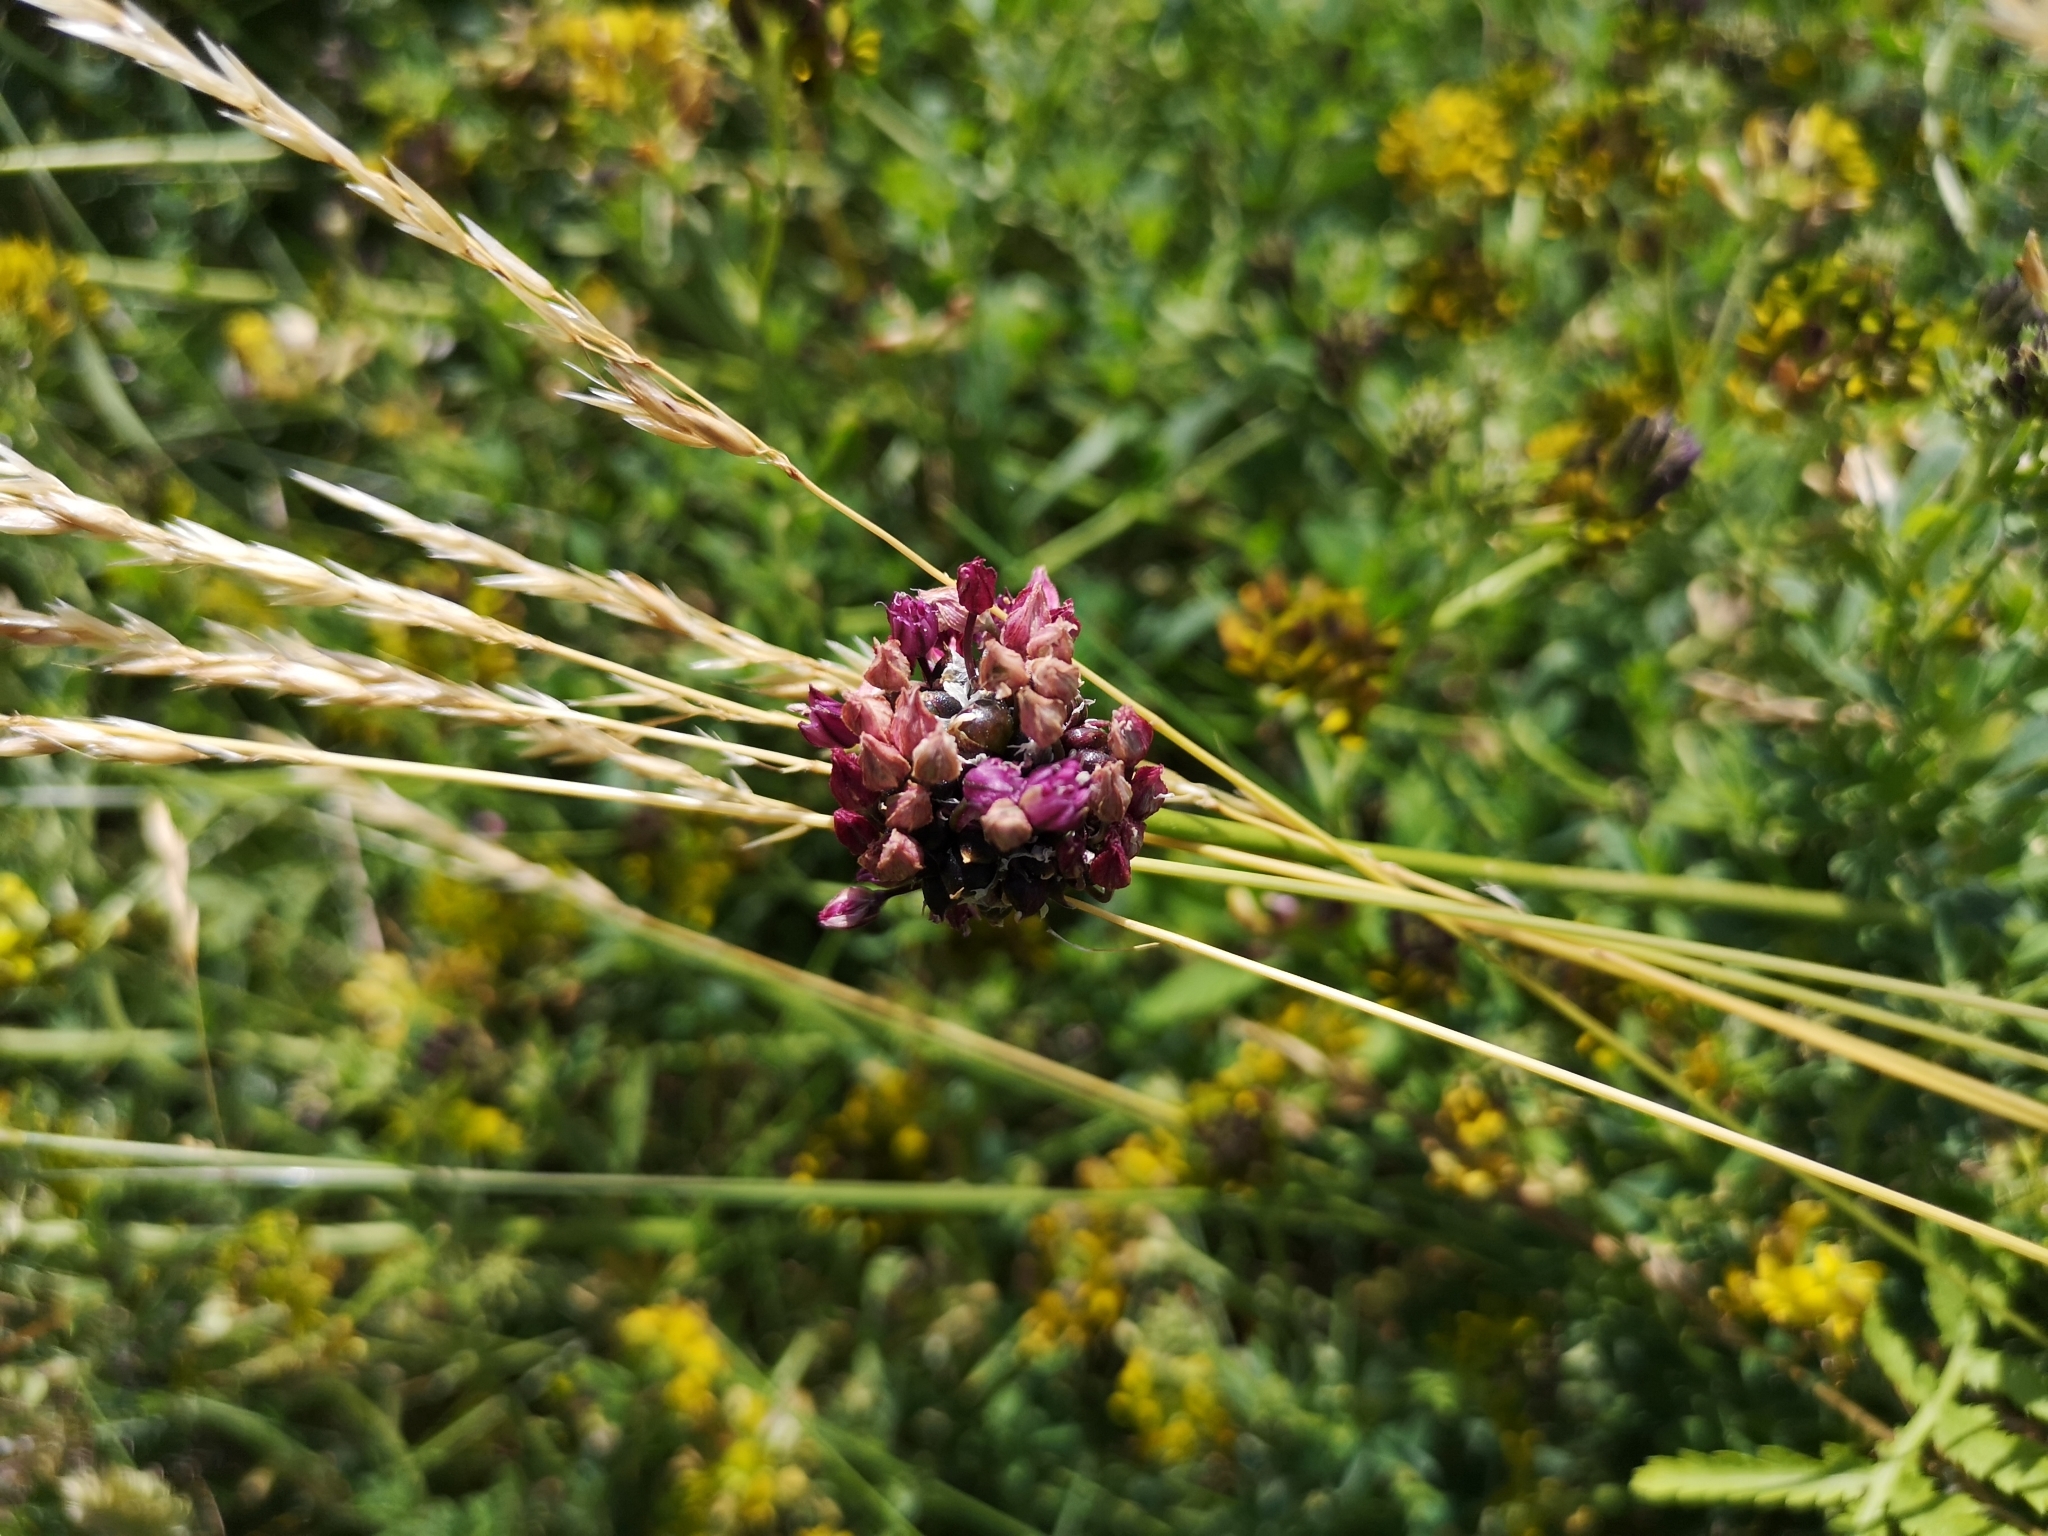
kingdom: Plantae
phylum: Tracheophyta
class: Liliopsida
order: Asparagales
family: Amaryllidaceae
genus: Allium
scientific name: Allium scorodoprasum
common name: Sand leek
